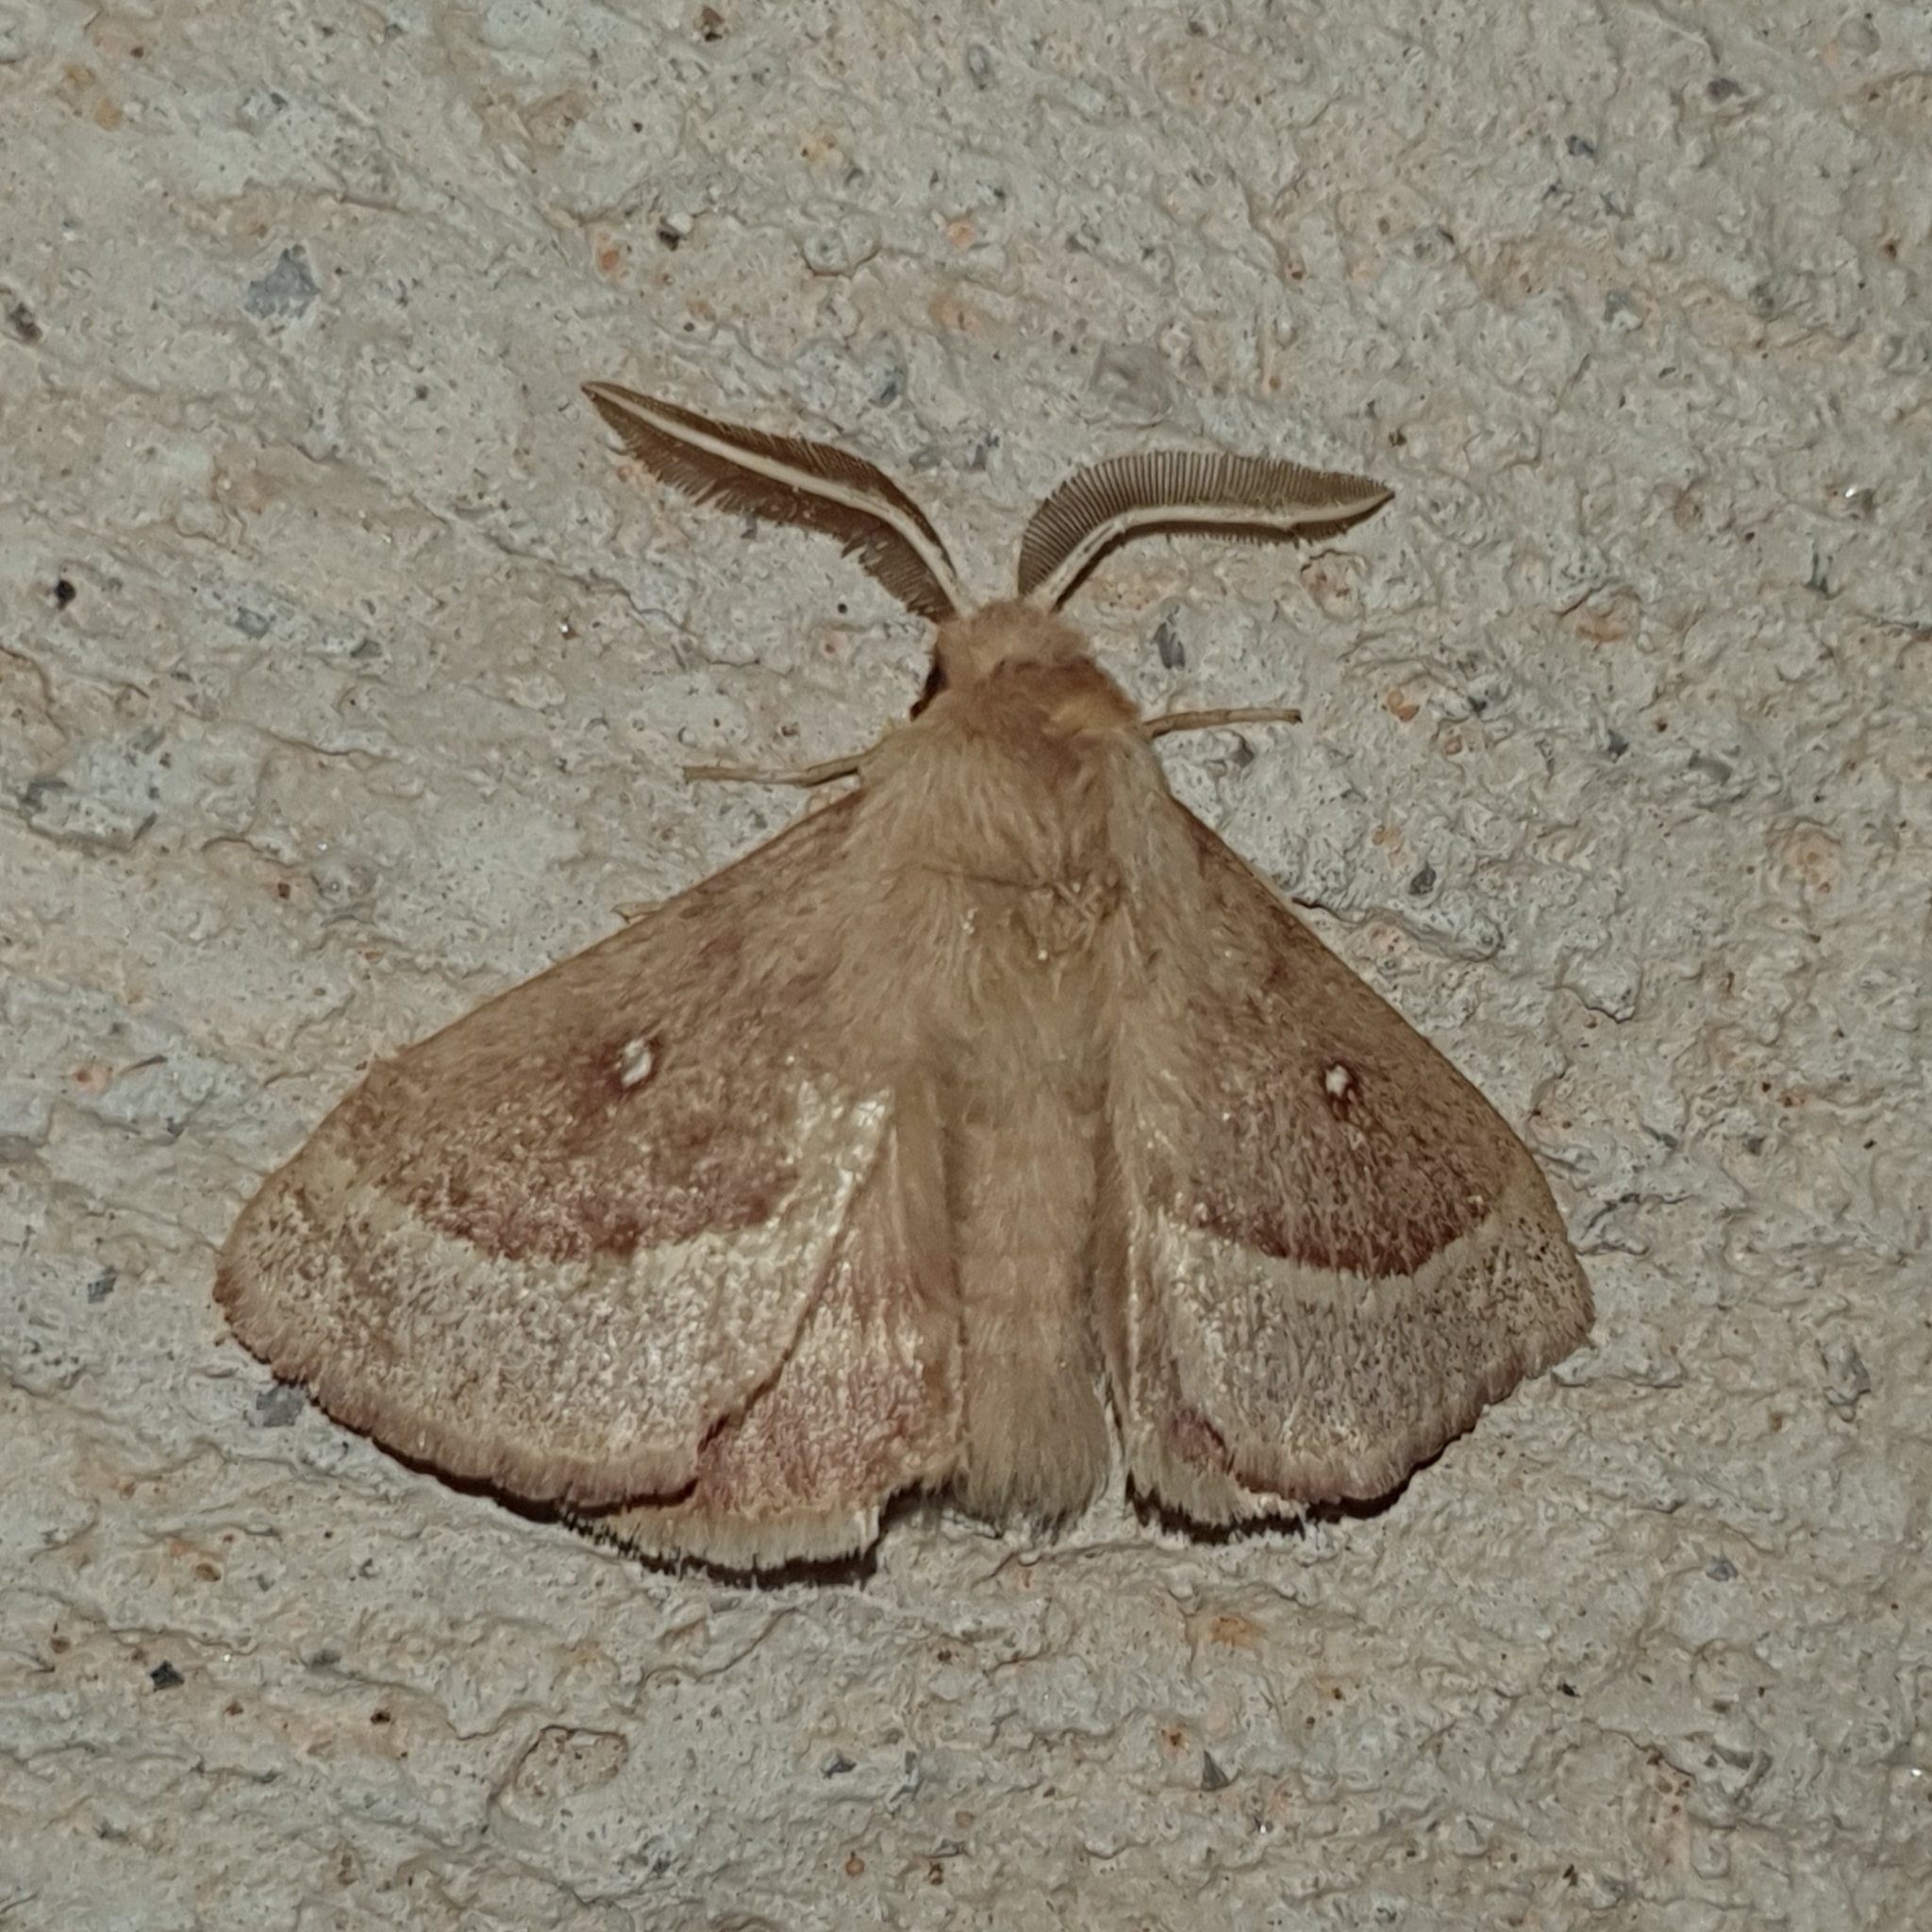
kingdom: Animalia
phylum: Arthropoda
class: Insecta
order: Lepidoptera
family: Lasiocampidae
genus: Lasiocampa
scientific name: Lasiocampa trifolii
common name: Grass eggar
